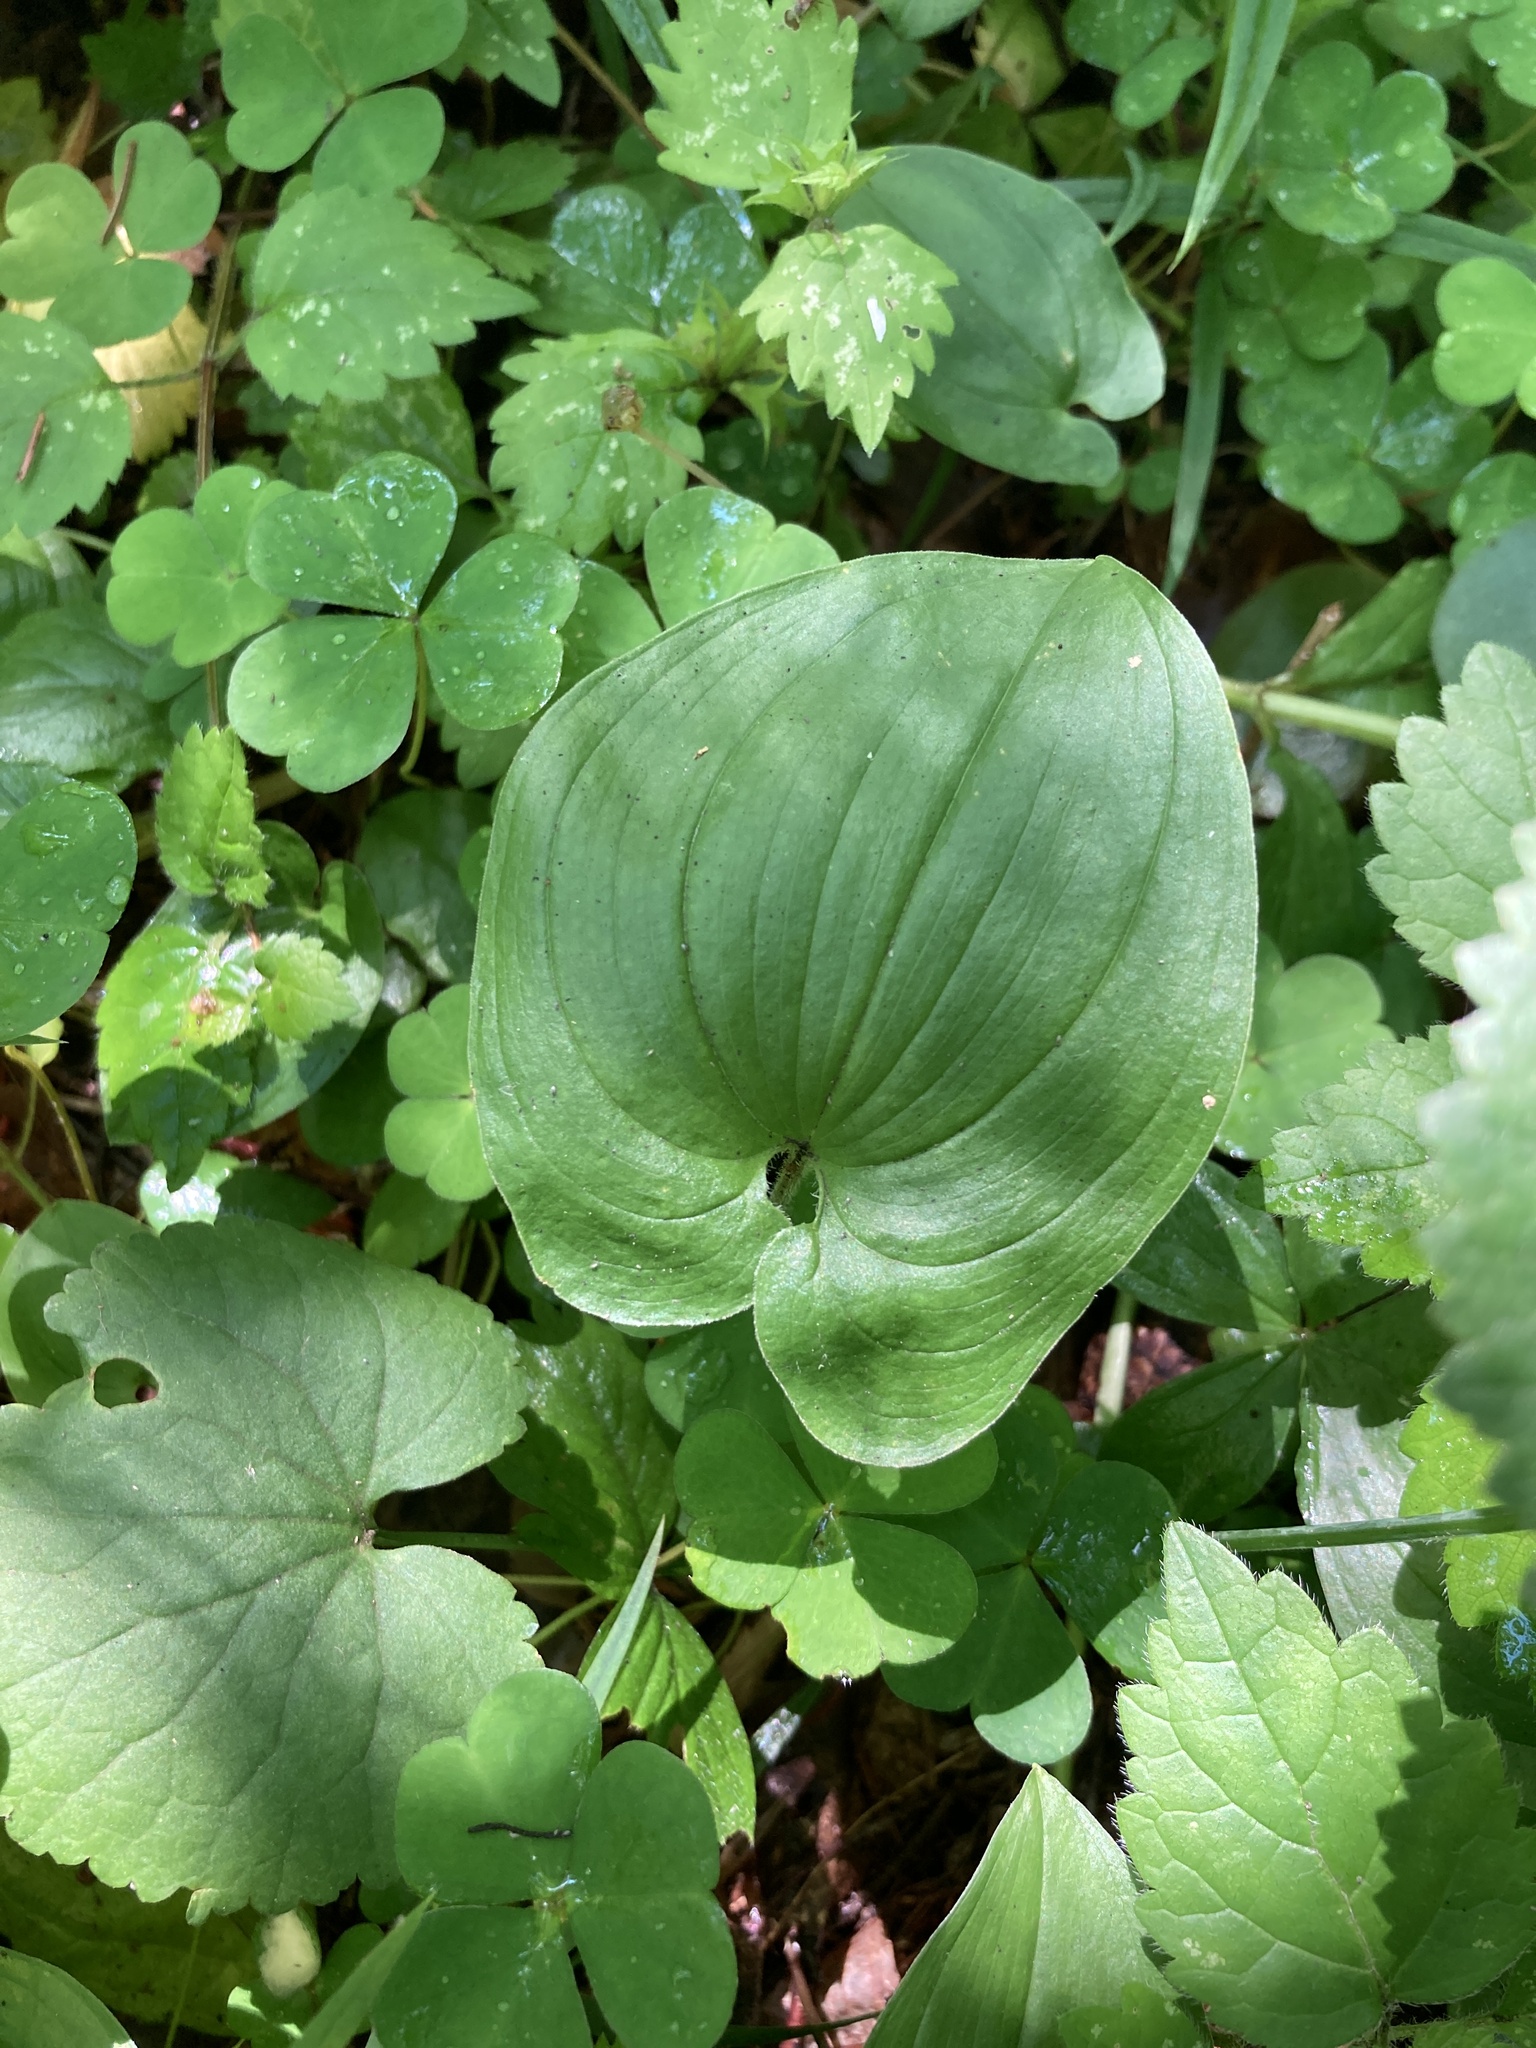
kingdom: Plantae
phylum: Tracheophyta
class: Liliopsida
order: Asparagales
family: Asparagaceae
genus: Maianthemum
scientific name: Maianthemum bifolium
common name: May lily
